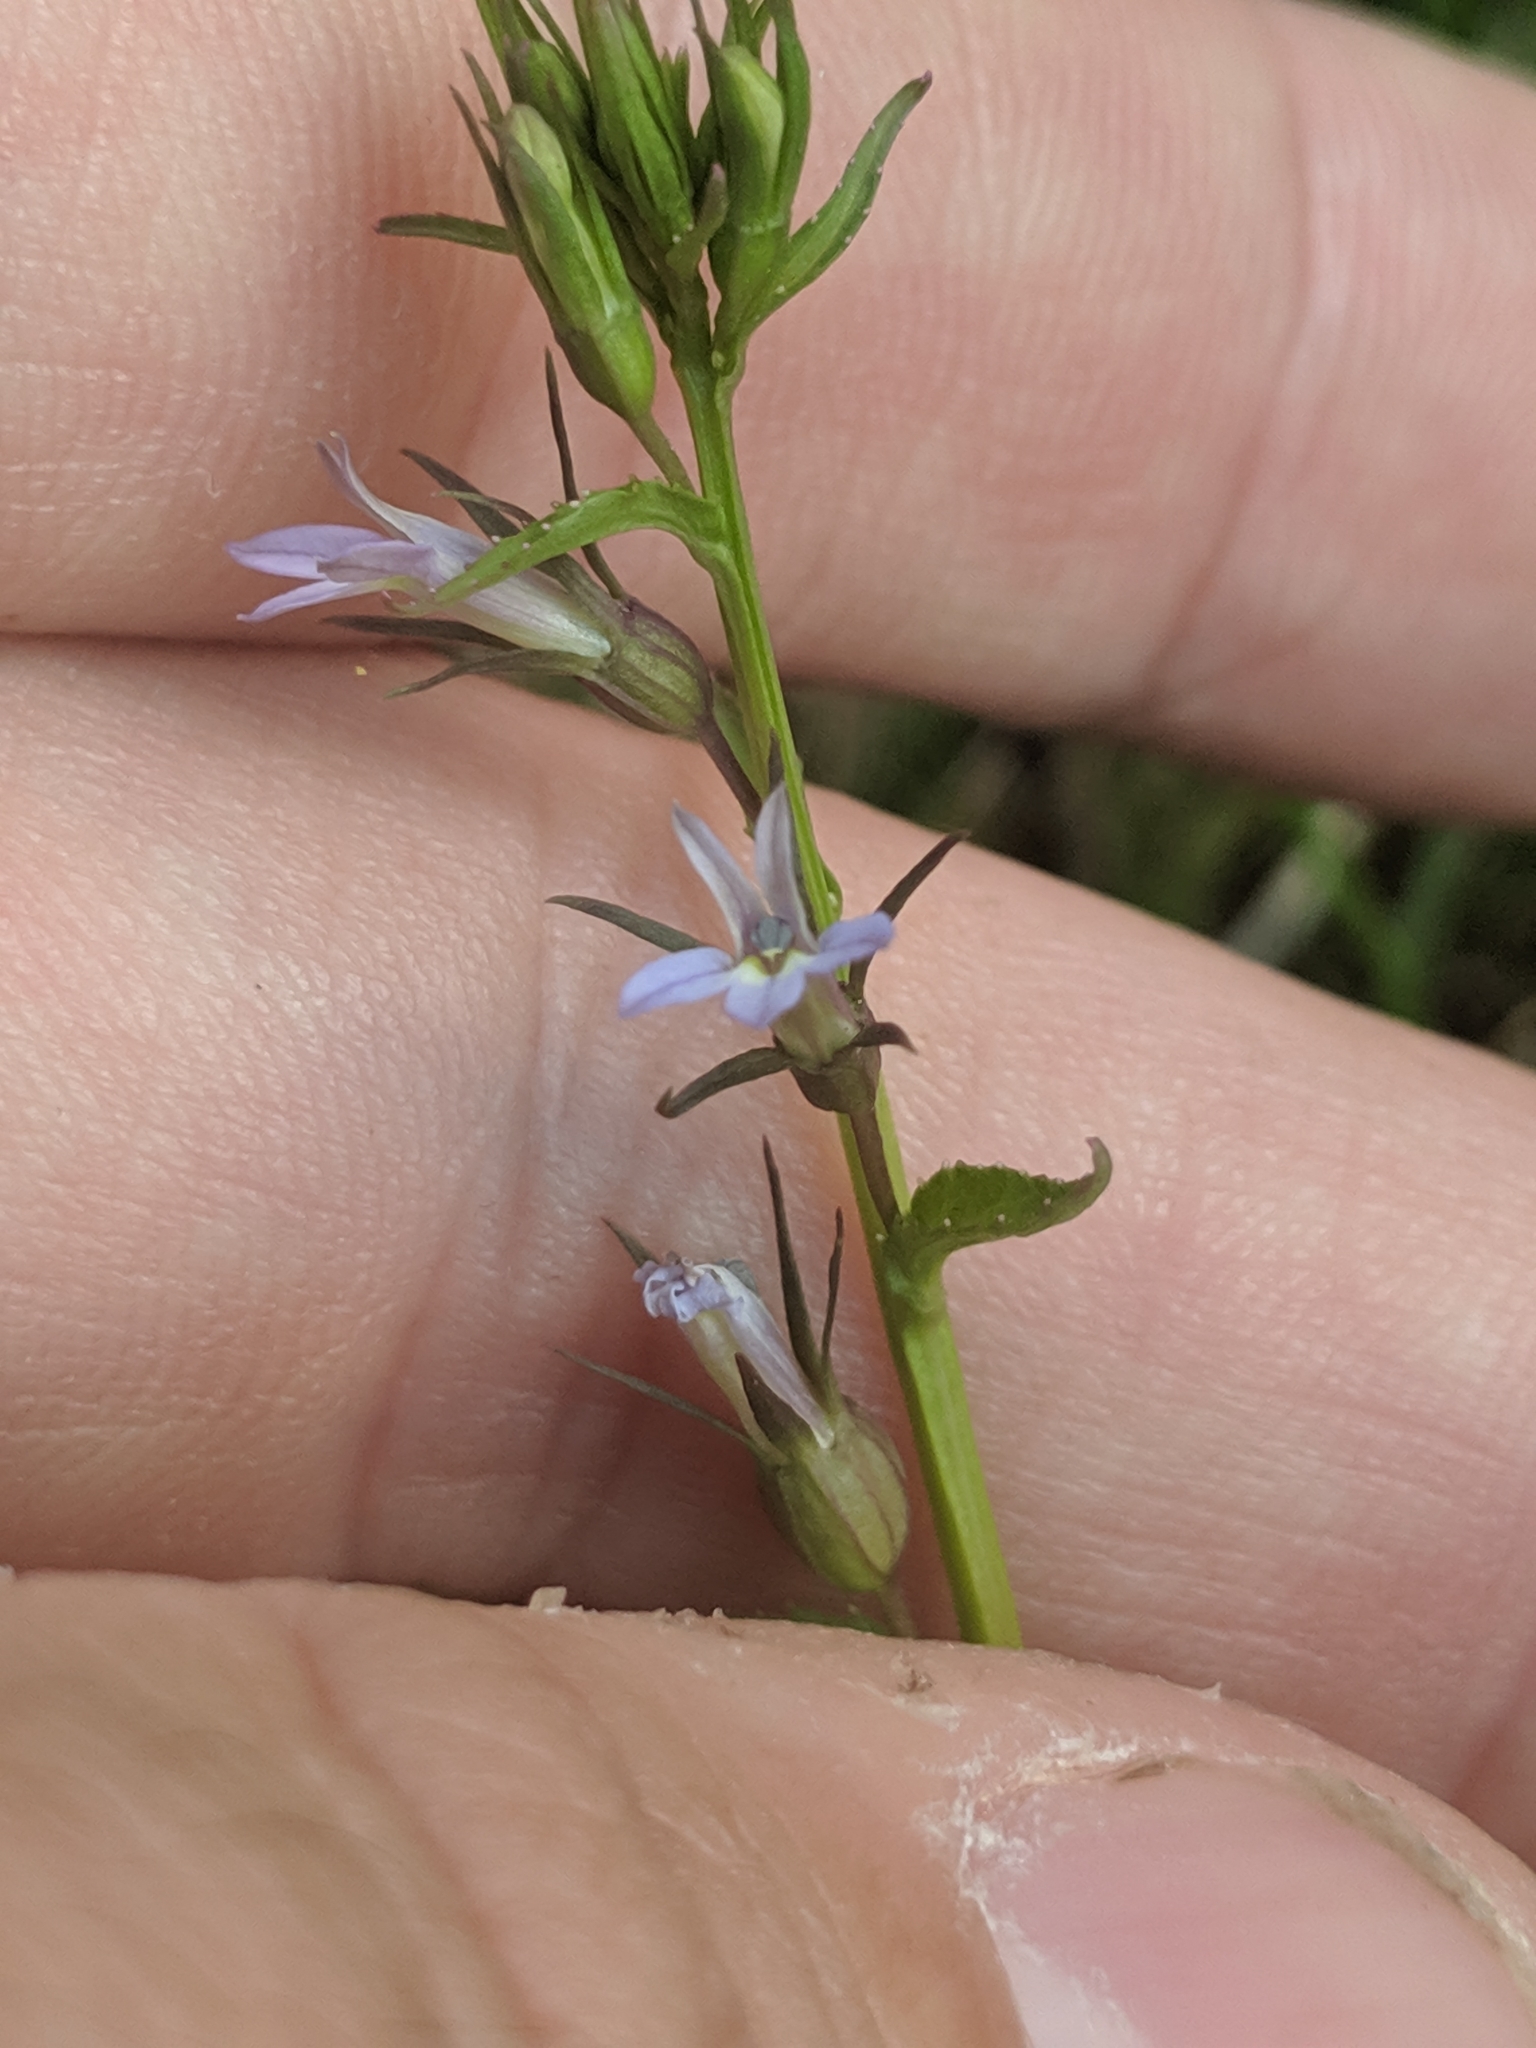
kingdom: Plantae
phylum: Tracheophyta
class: Magnoliopsida
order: Asterales
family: Campanulaceae
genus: Lobelia
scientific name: Lobelia inflata
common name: Indian tobacco
